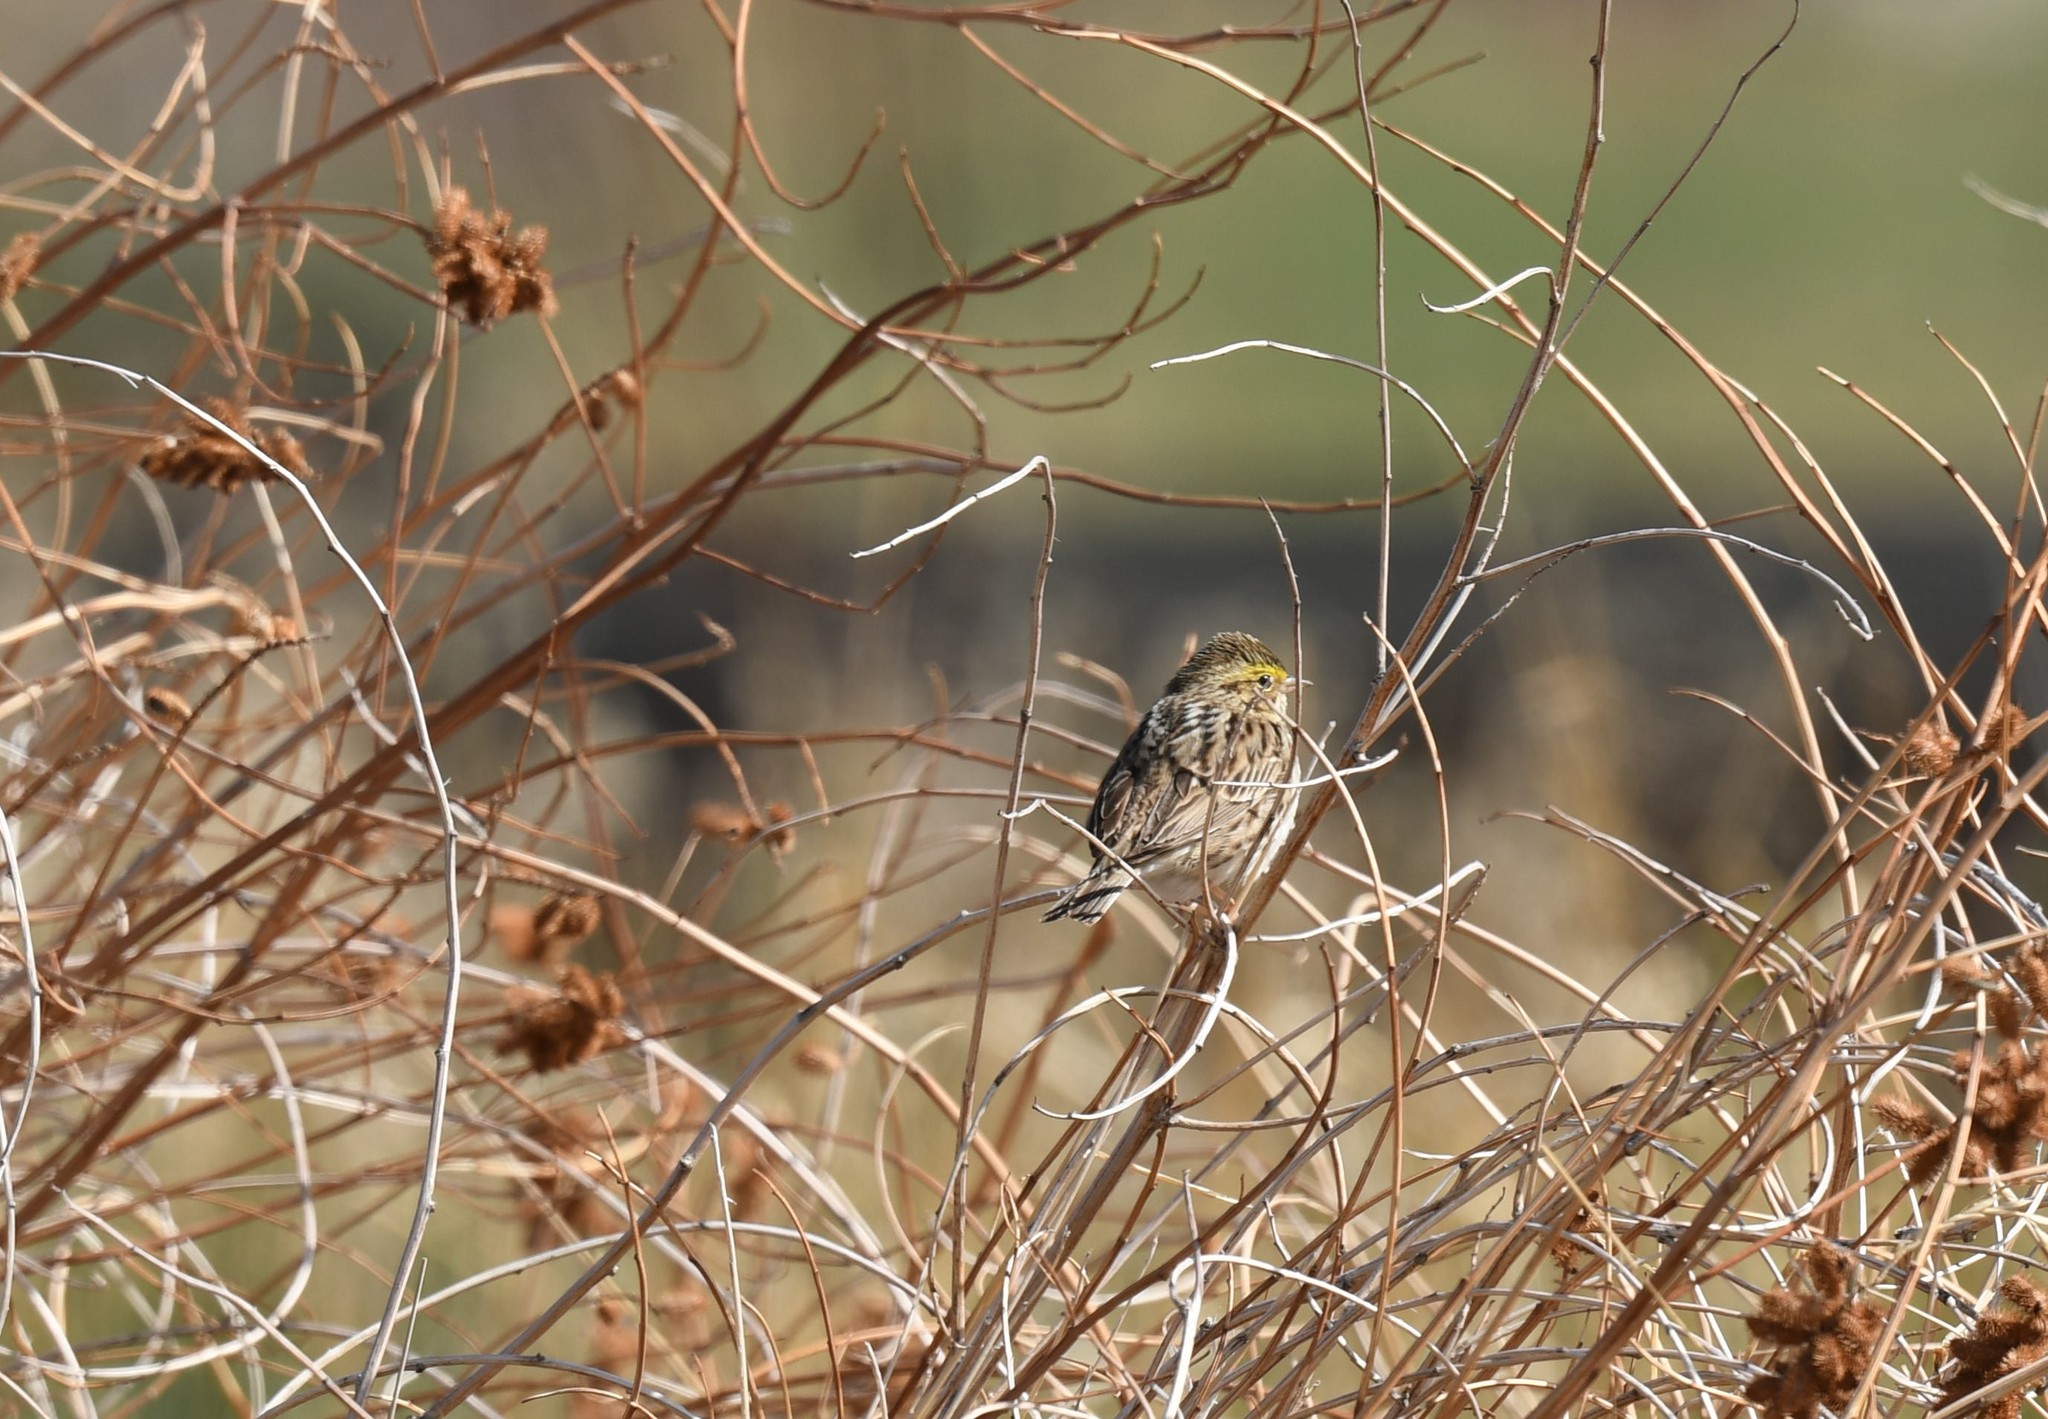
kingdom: Animalia
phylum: Chordata
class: Aves
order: Passeriformes
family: Passerellidae
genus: Passerculus
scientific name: Passerculus sandwichensis
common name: Savannah sparrow
